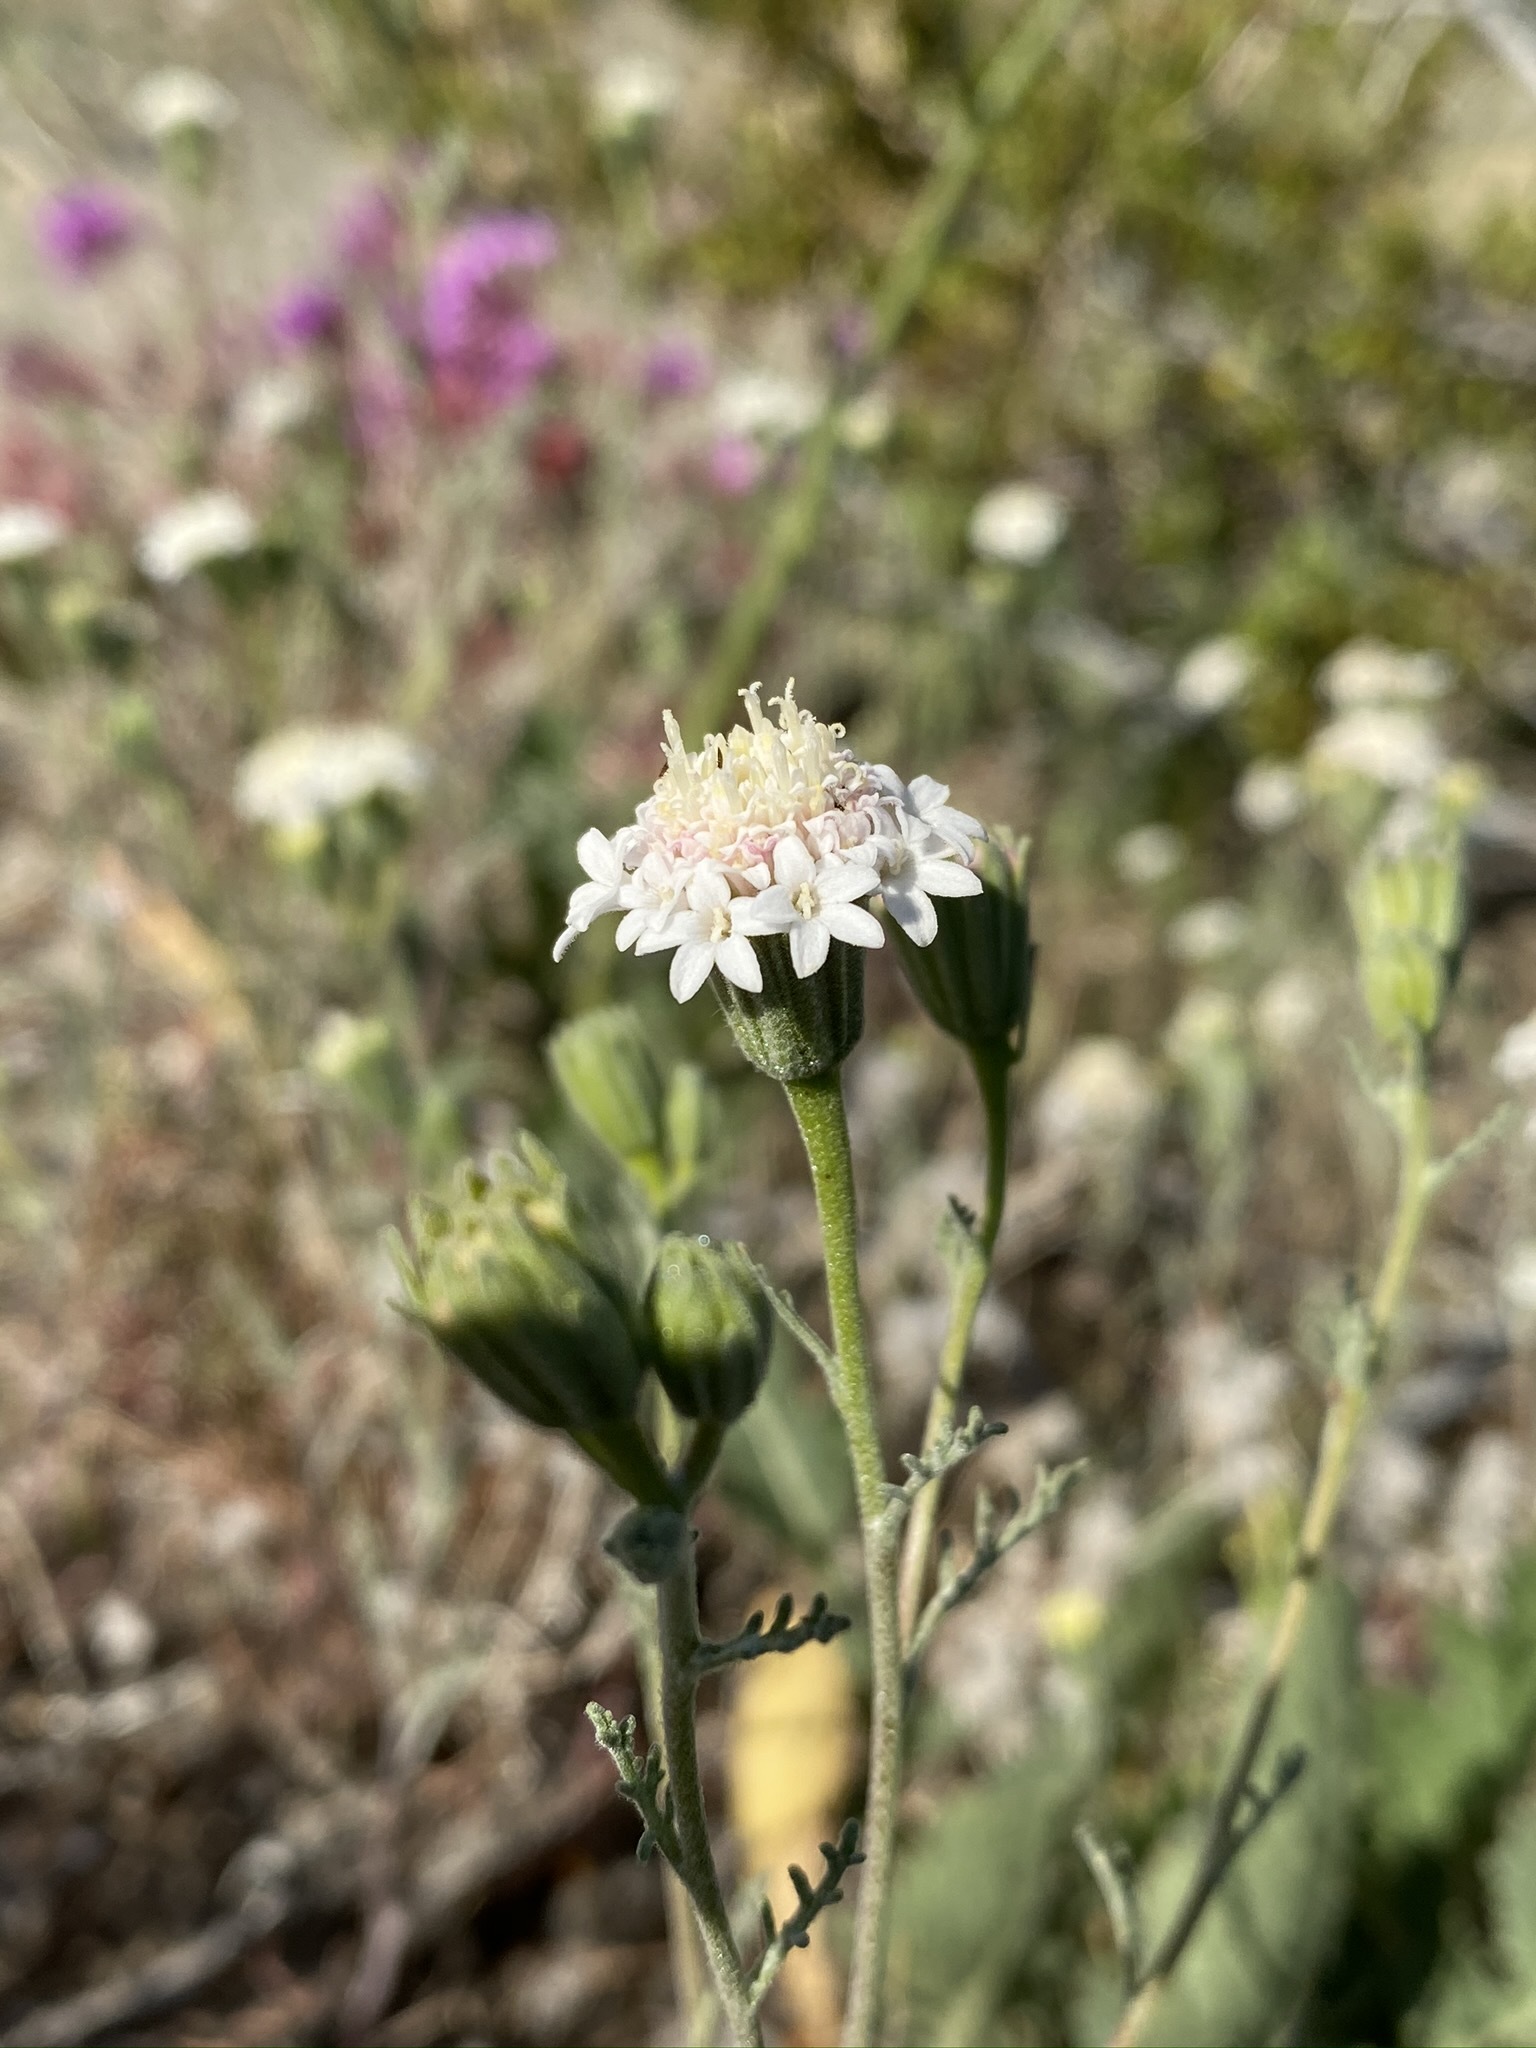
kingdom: Plantae
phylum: Tracheophyta
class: Magnoliopsida
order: Asterales
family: Asteraceae
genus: Chaenactis
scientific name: Chaenactis stevioides
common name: Desert pincushion
